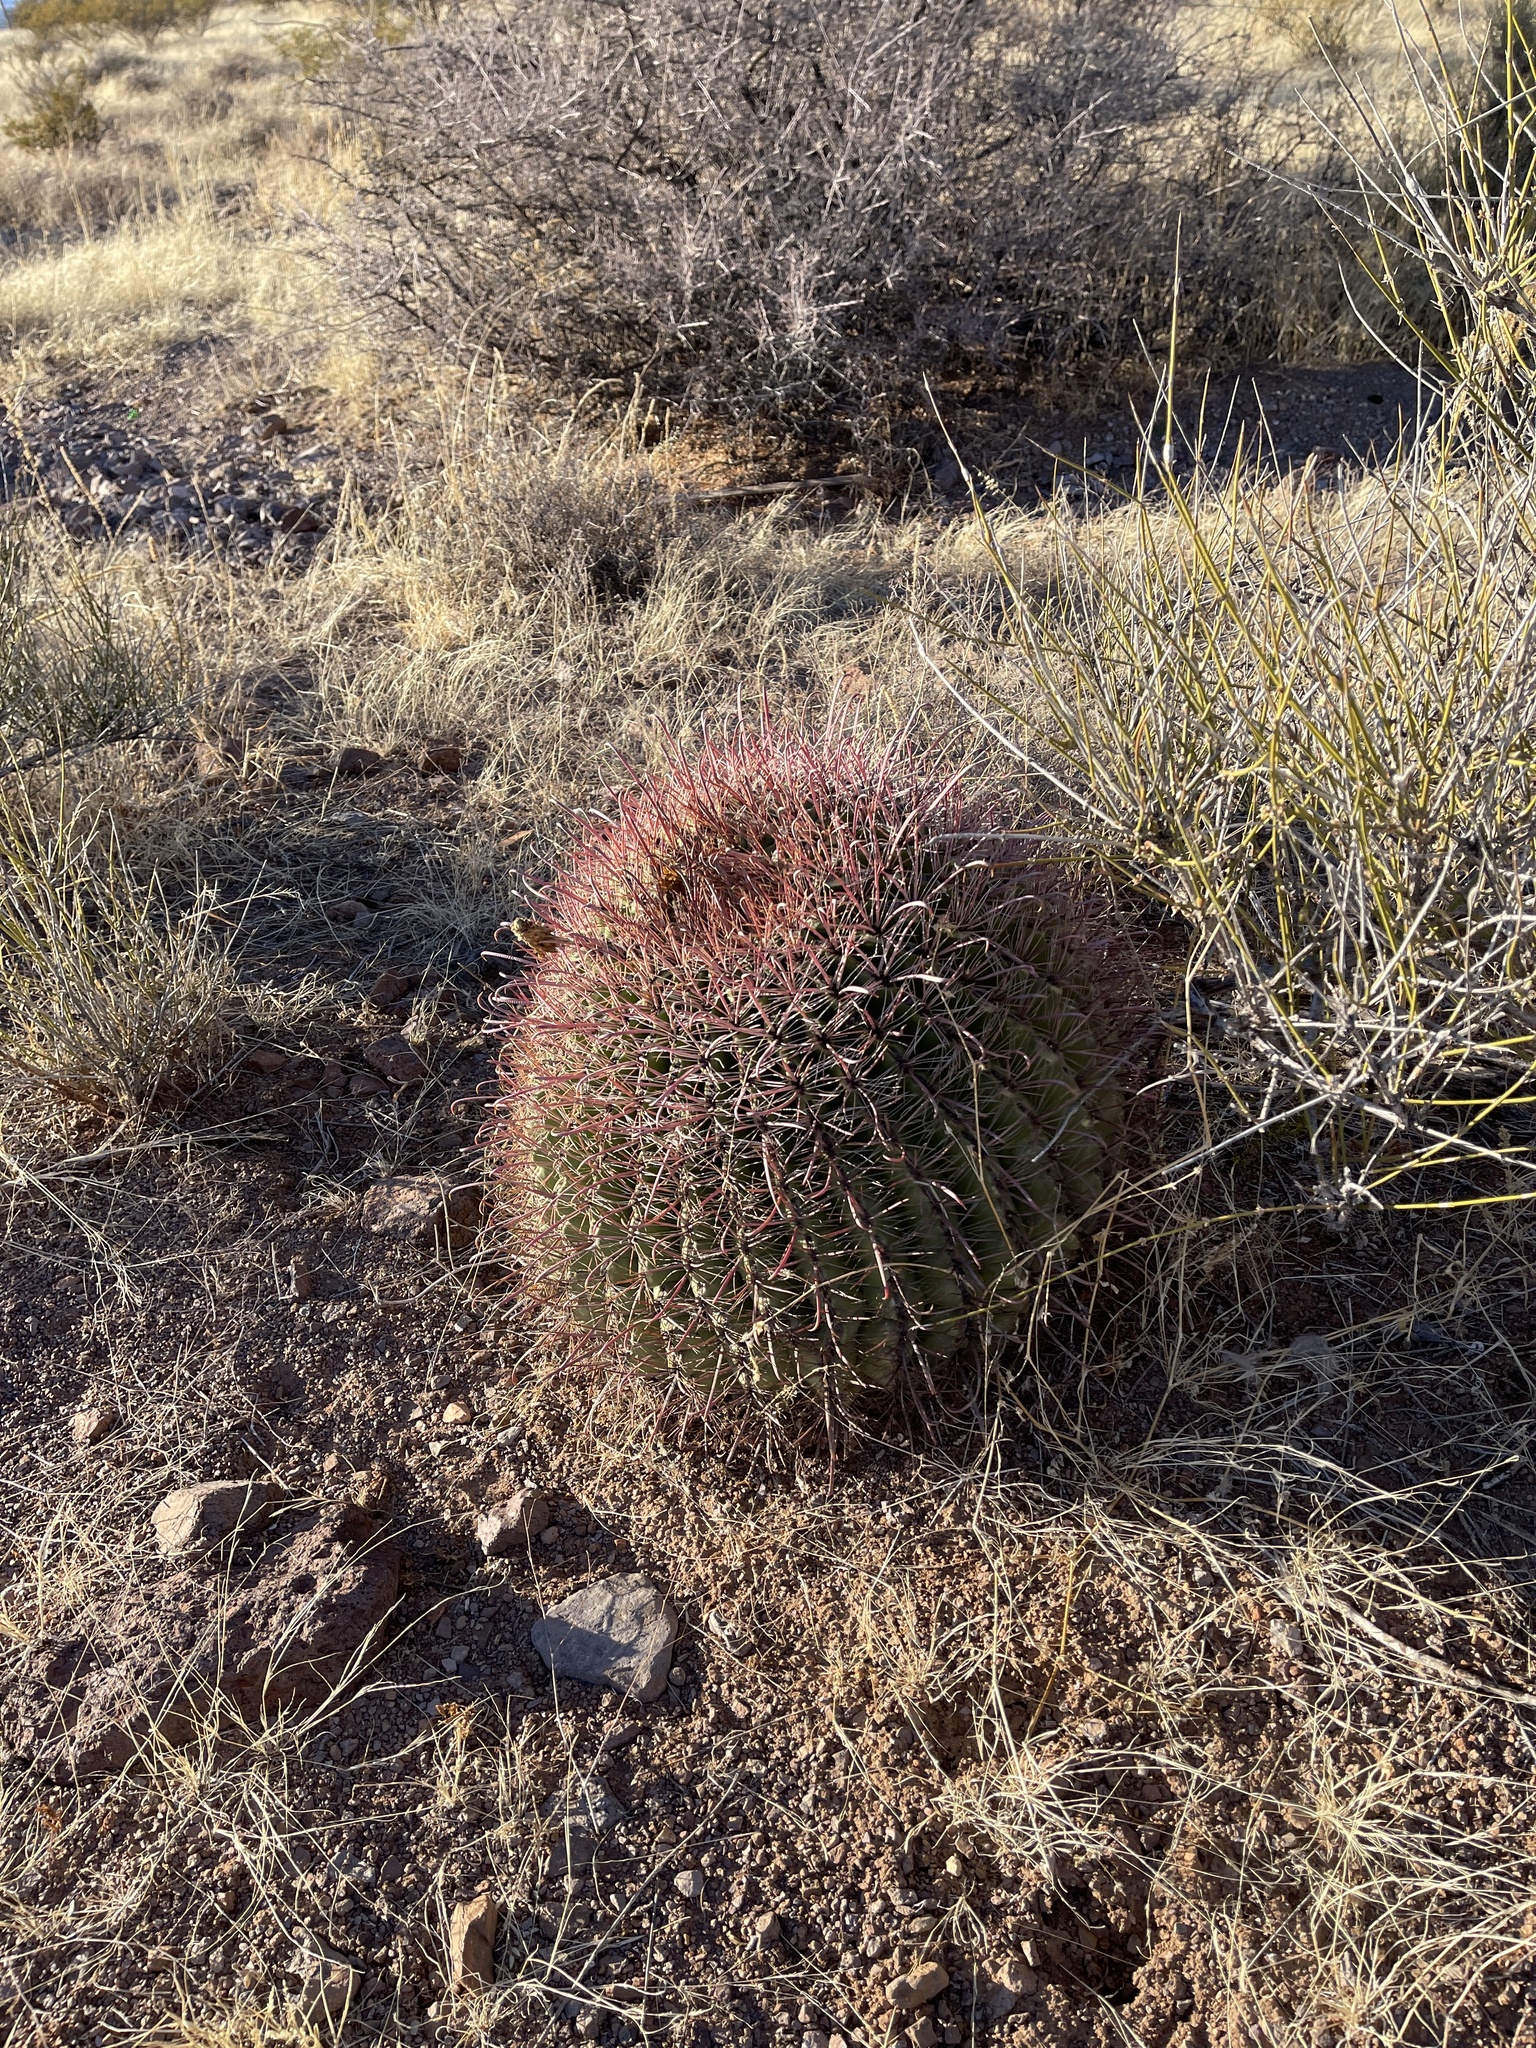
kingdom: Plantae
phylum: Tracheophyta
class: Magnoliopsida
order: Caryophyllales
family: Cactaceae
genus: Ferocactus
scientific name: Ferocactus wislizeni
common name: Candy barrel cactus
